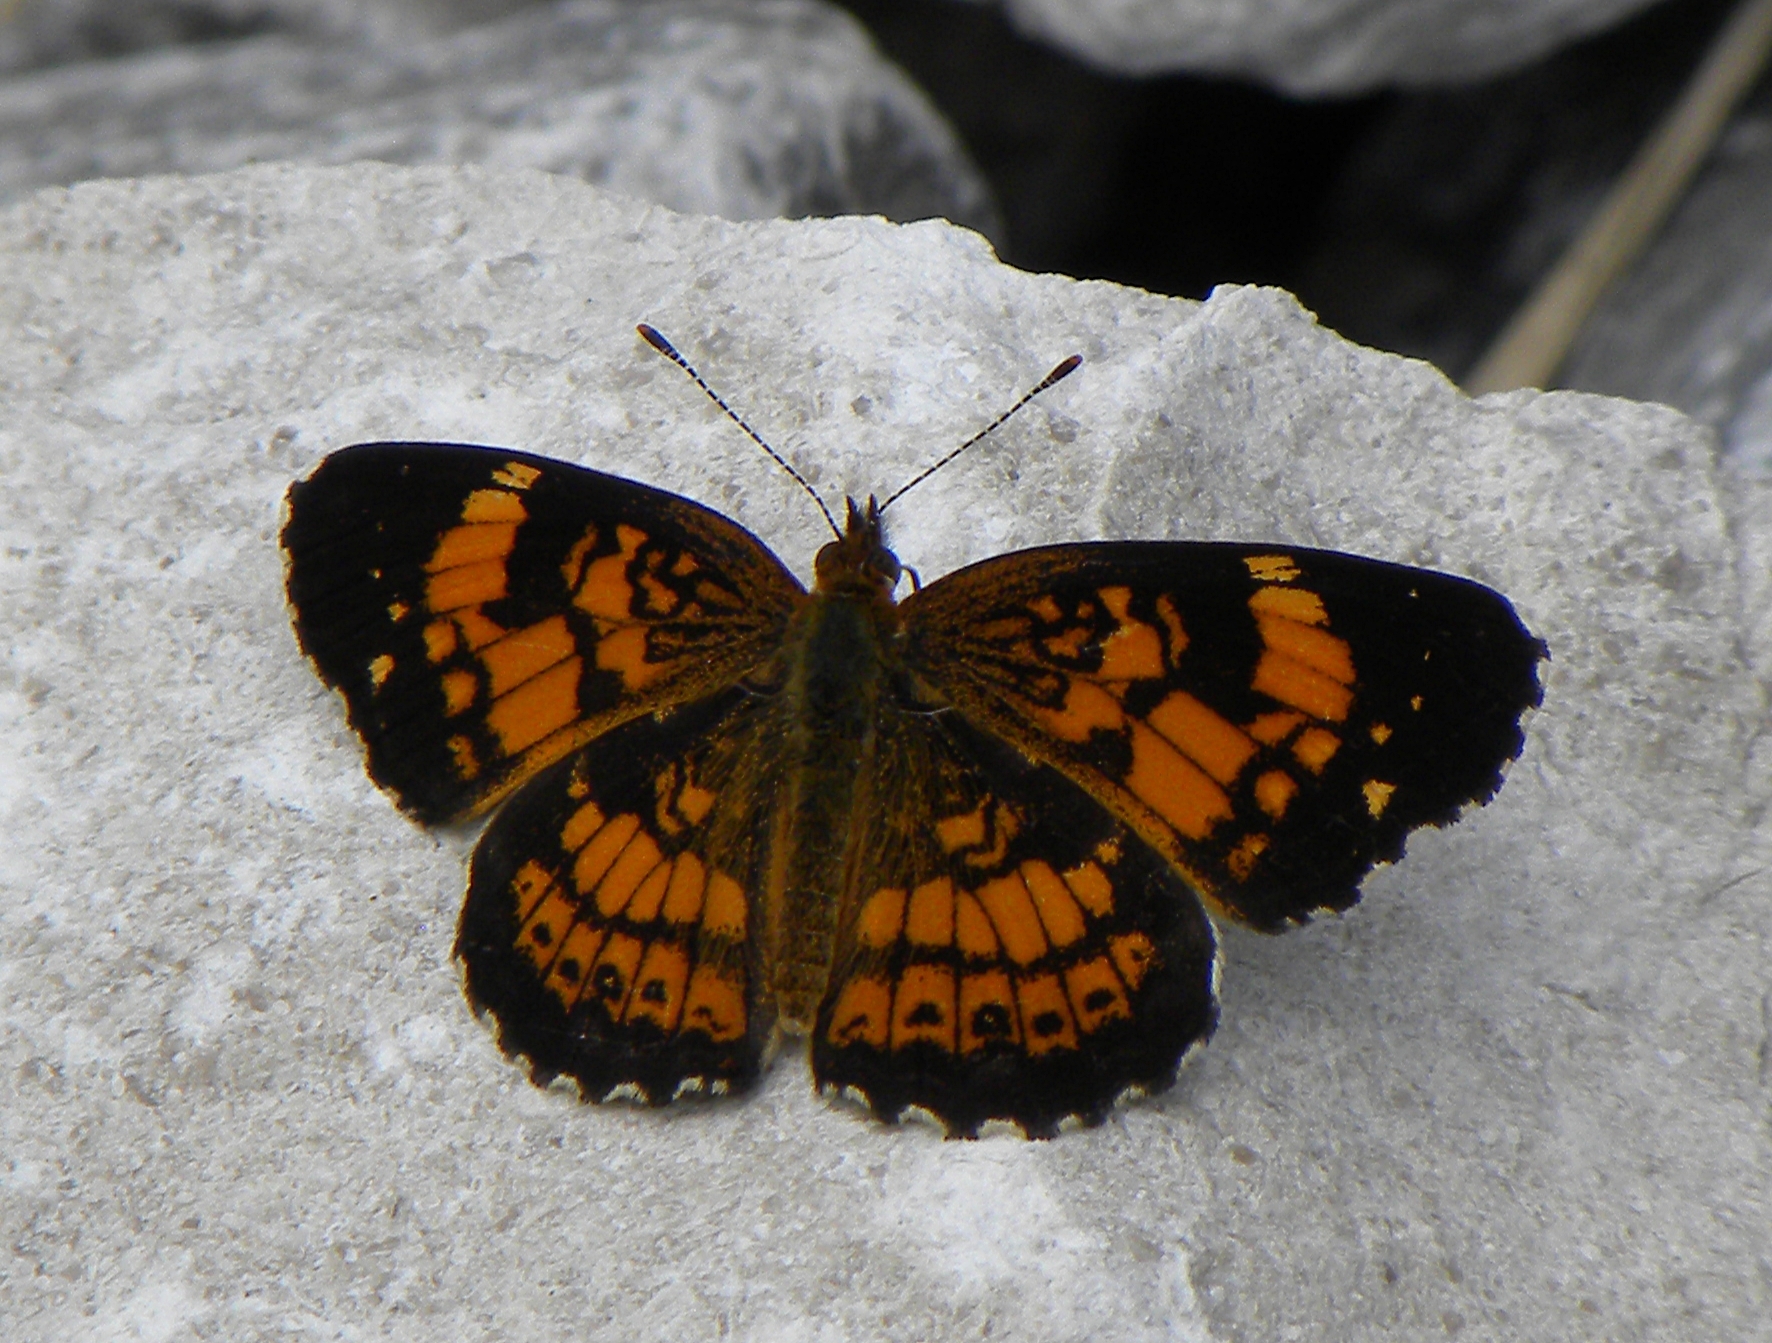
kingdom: Animalia
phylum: Arthropoda
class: Insecta
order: Lepidoptera
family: Nymphalidae
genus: Chlosyne
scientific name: Chlosyne nycteis
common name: Silvery checkerspot
